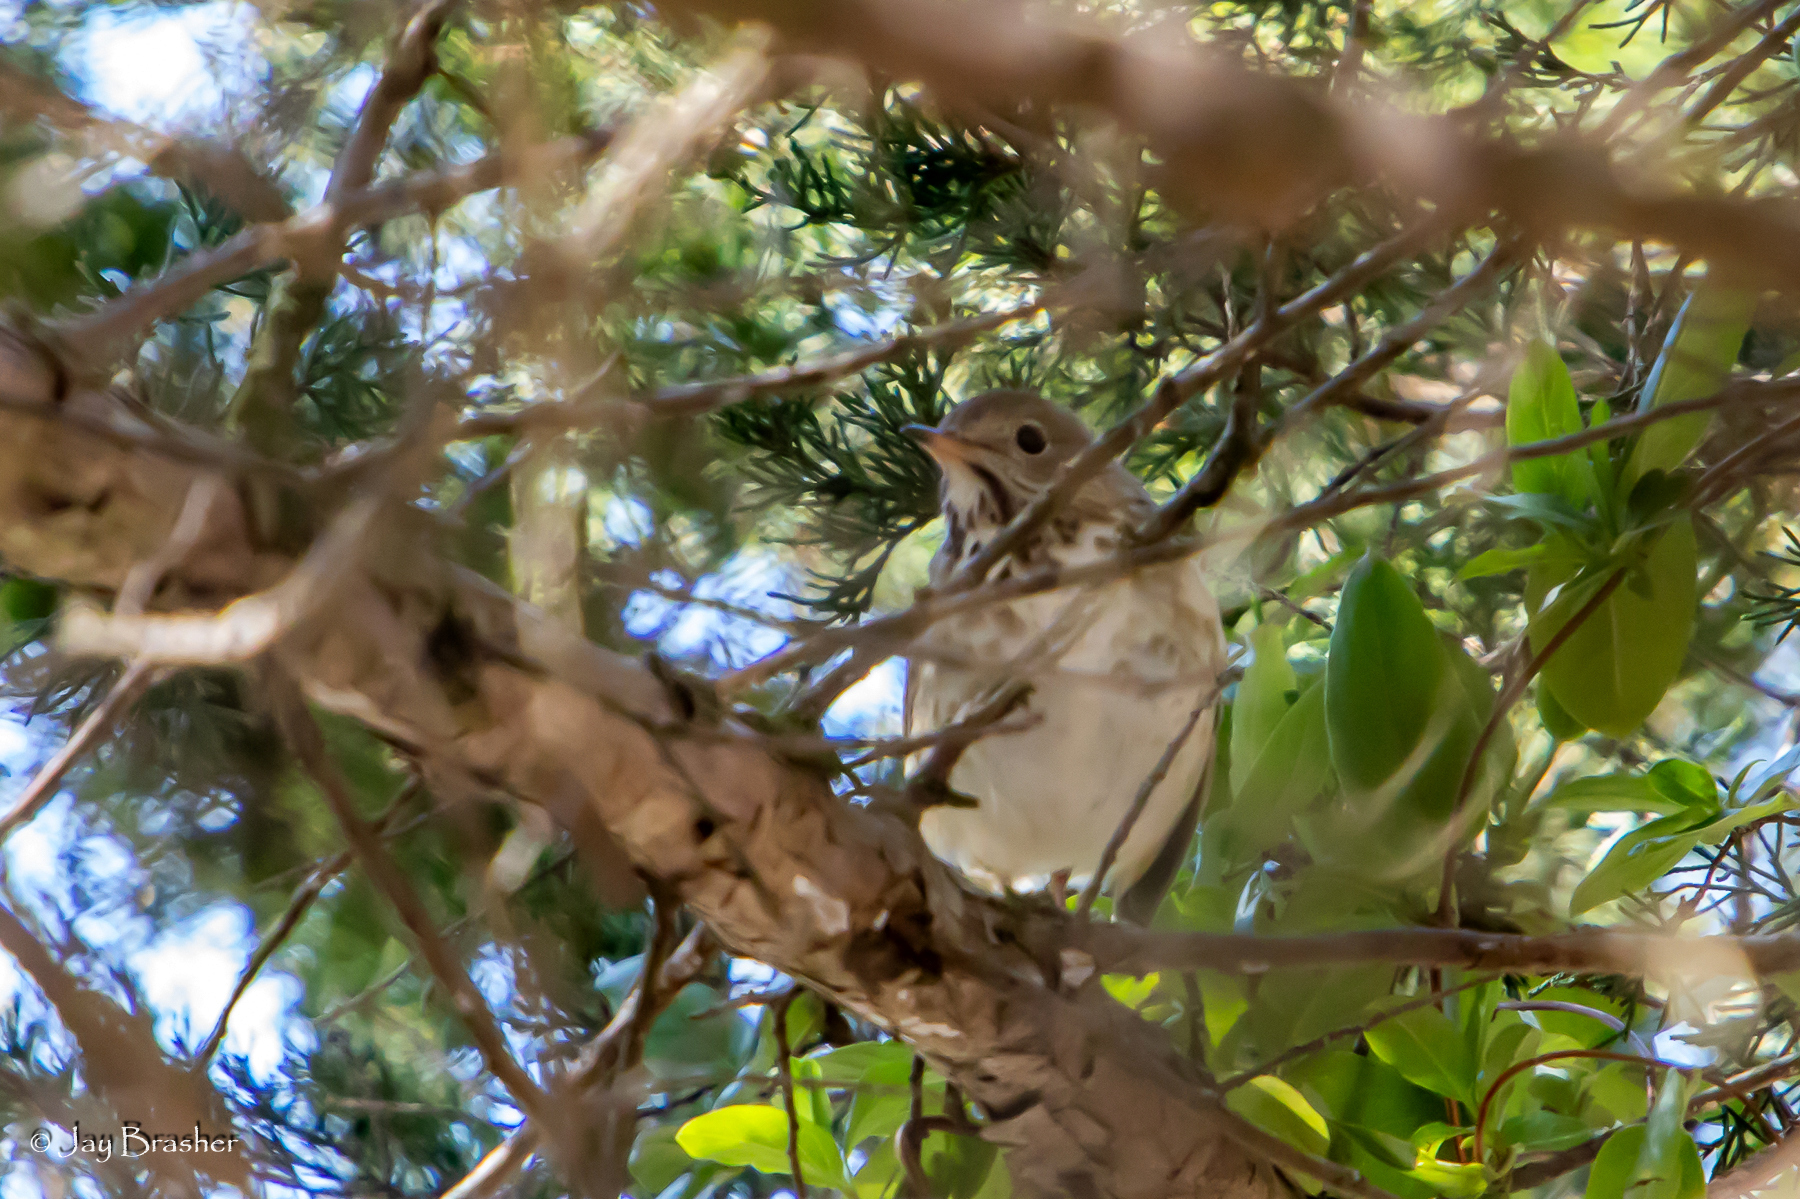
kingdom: Animalia
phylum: Chordata
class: Aves
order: Passeriformes
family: Turdidae
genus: Catharus
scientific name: Catharus guttatus
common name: Hermit thrush
